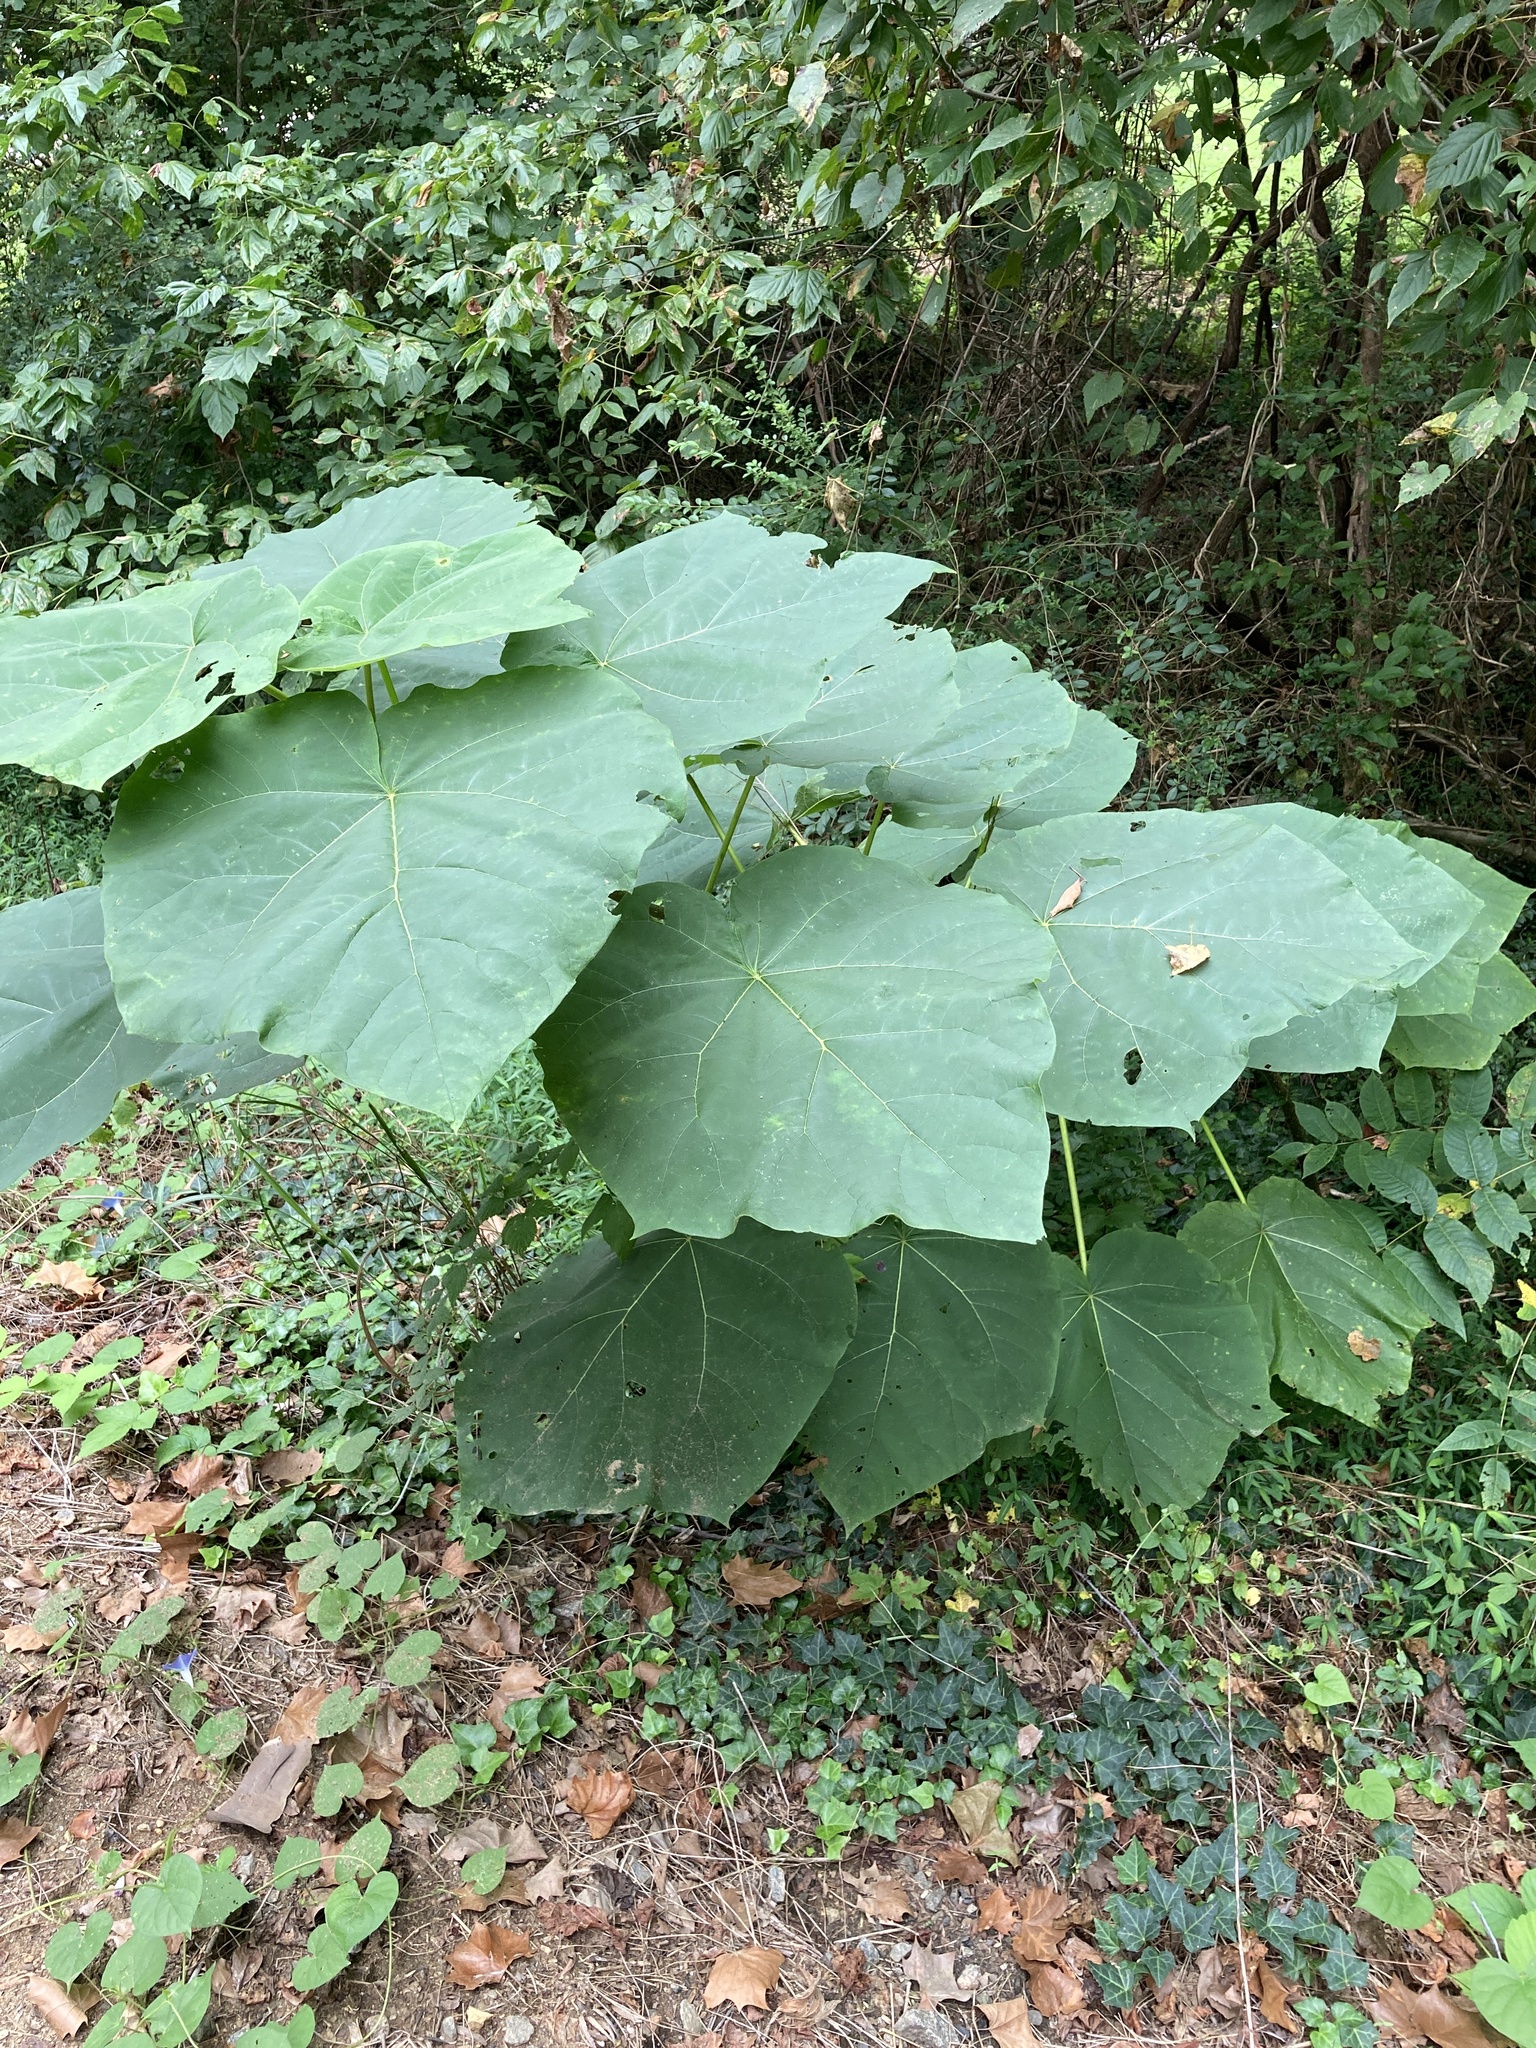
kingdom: Plantae
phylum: Tracheophyta
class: Magnoliopsida
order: Lamiales
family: Paulowniaceae
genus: Paulownia
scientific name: Paulownia tomentosa
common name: Foxglove-tree
